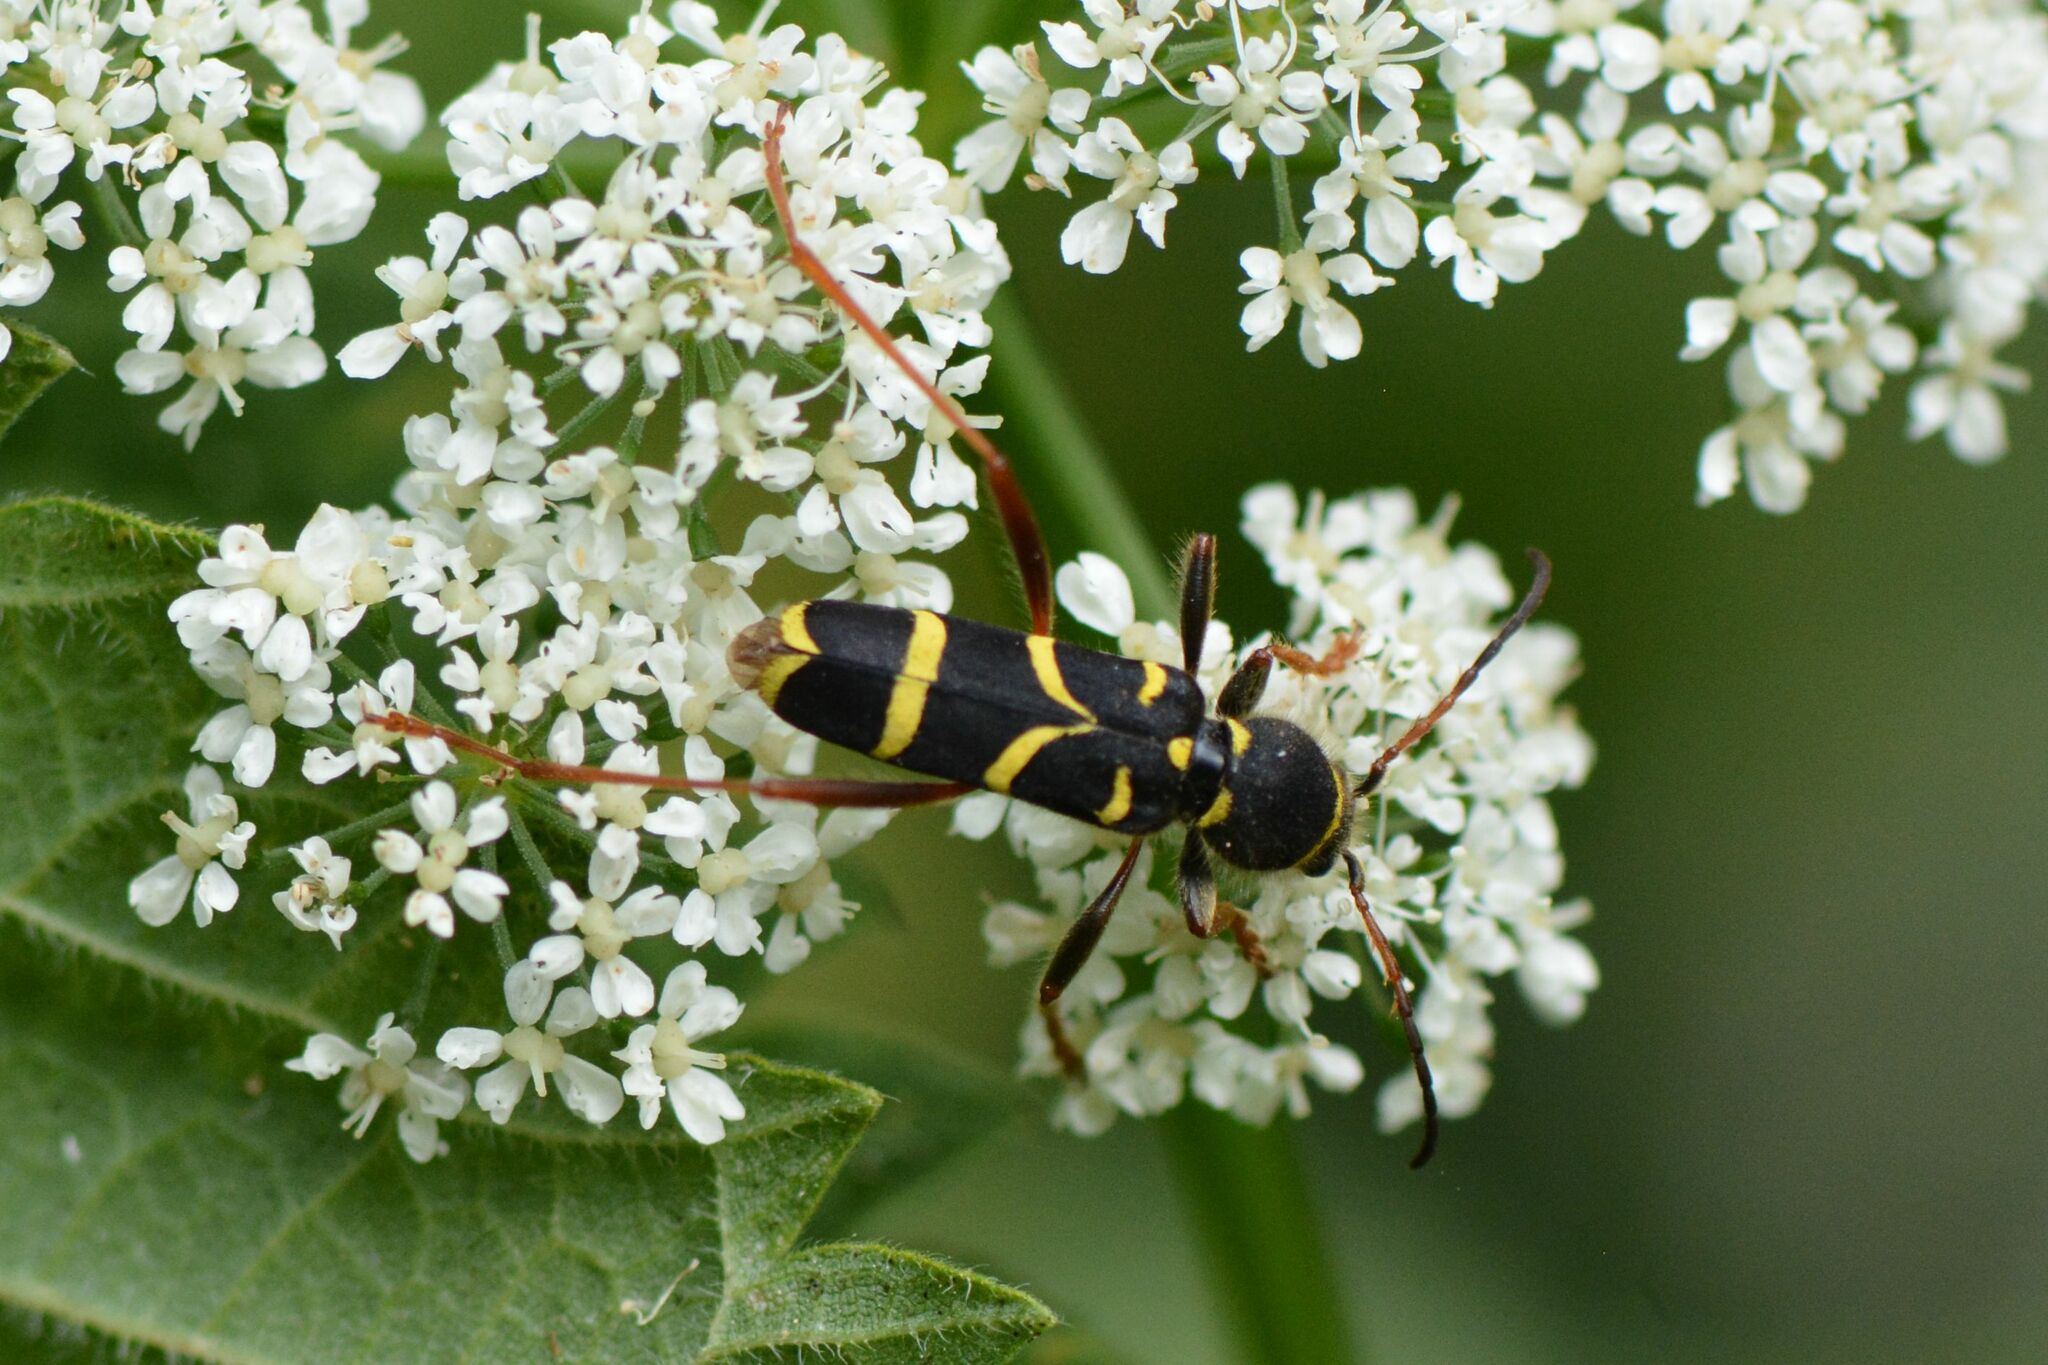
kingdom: Animalia
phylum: Arthropoda
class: Insecta
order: Coleoptera
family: Cerambycidae
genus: Clytus
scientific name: Clytus arietis
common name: Wasp beetle
